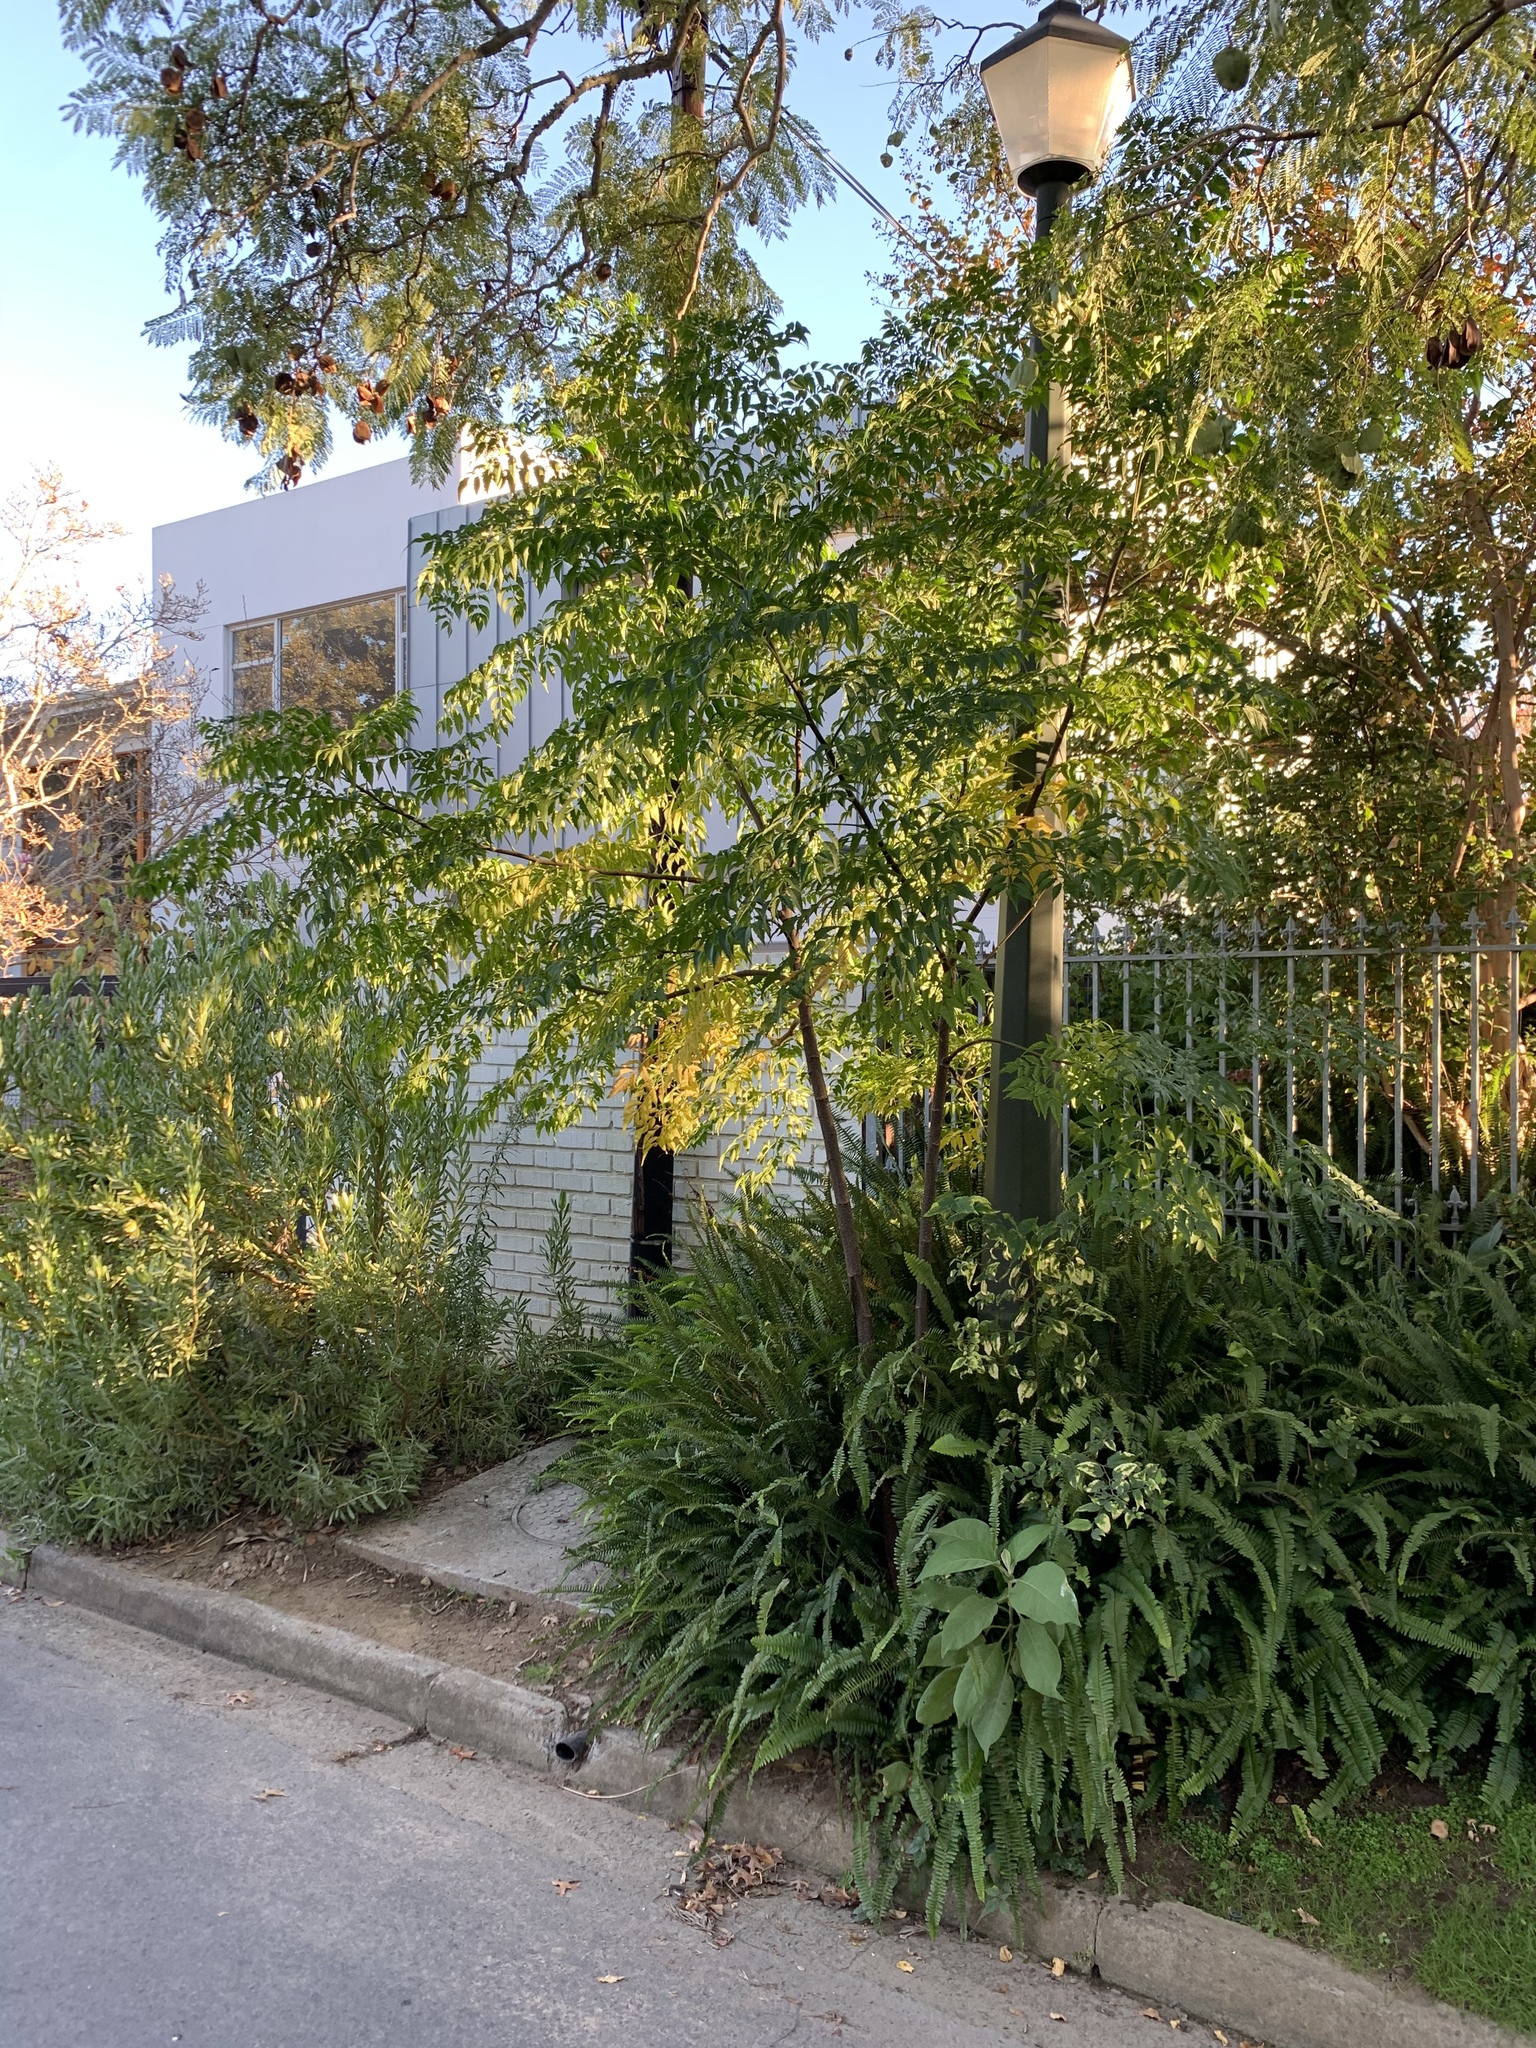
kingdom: Plantae
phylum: Tracheophyta
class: Magnoliopsida
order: Sapindales
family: Meliaceae
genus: Melia
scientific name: Melia azedarach
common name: Chinaberrytree
